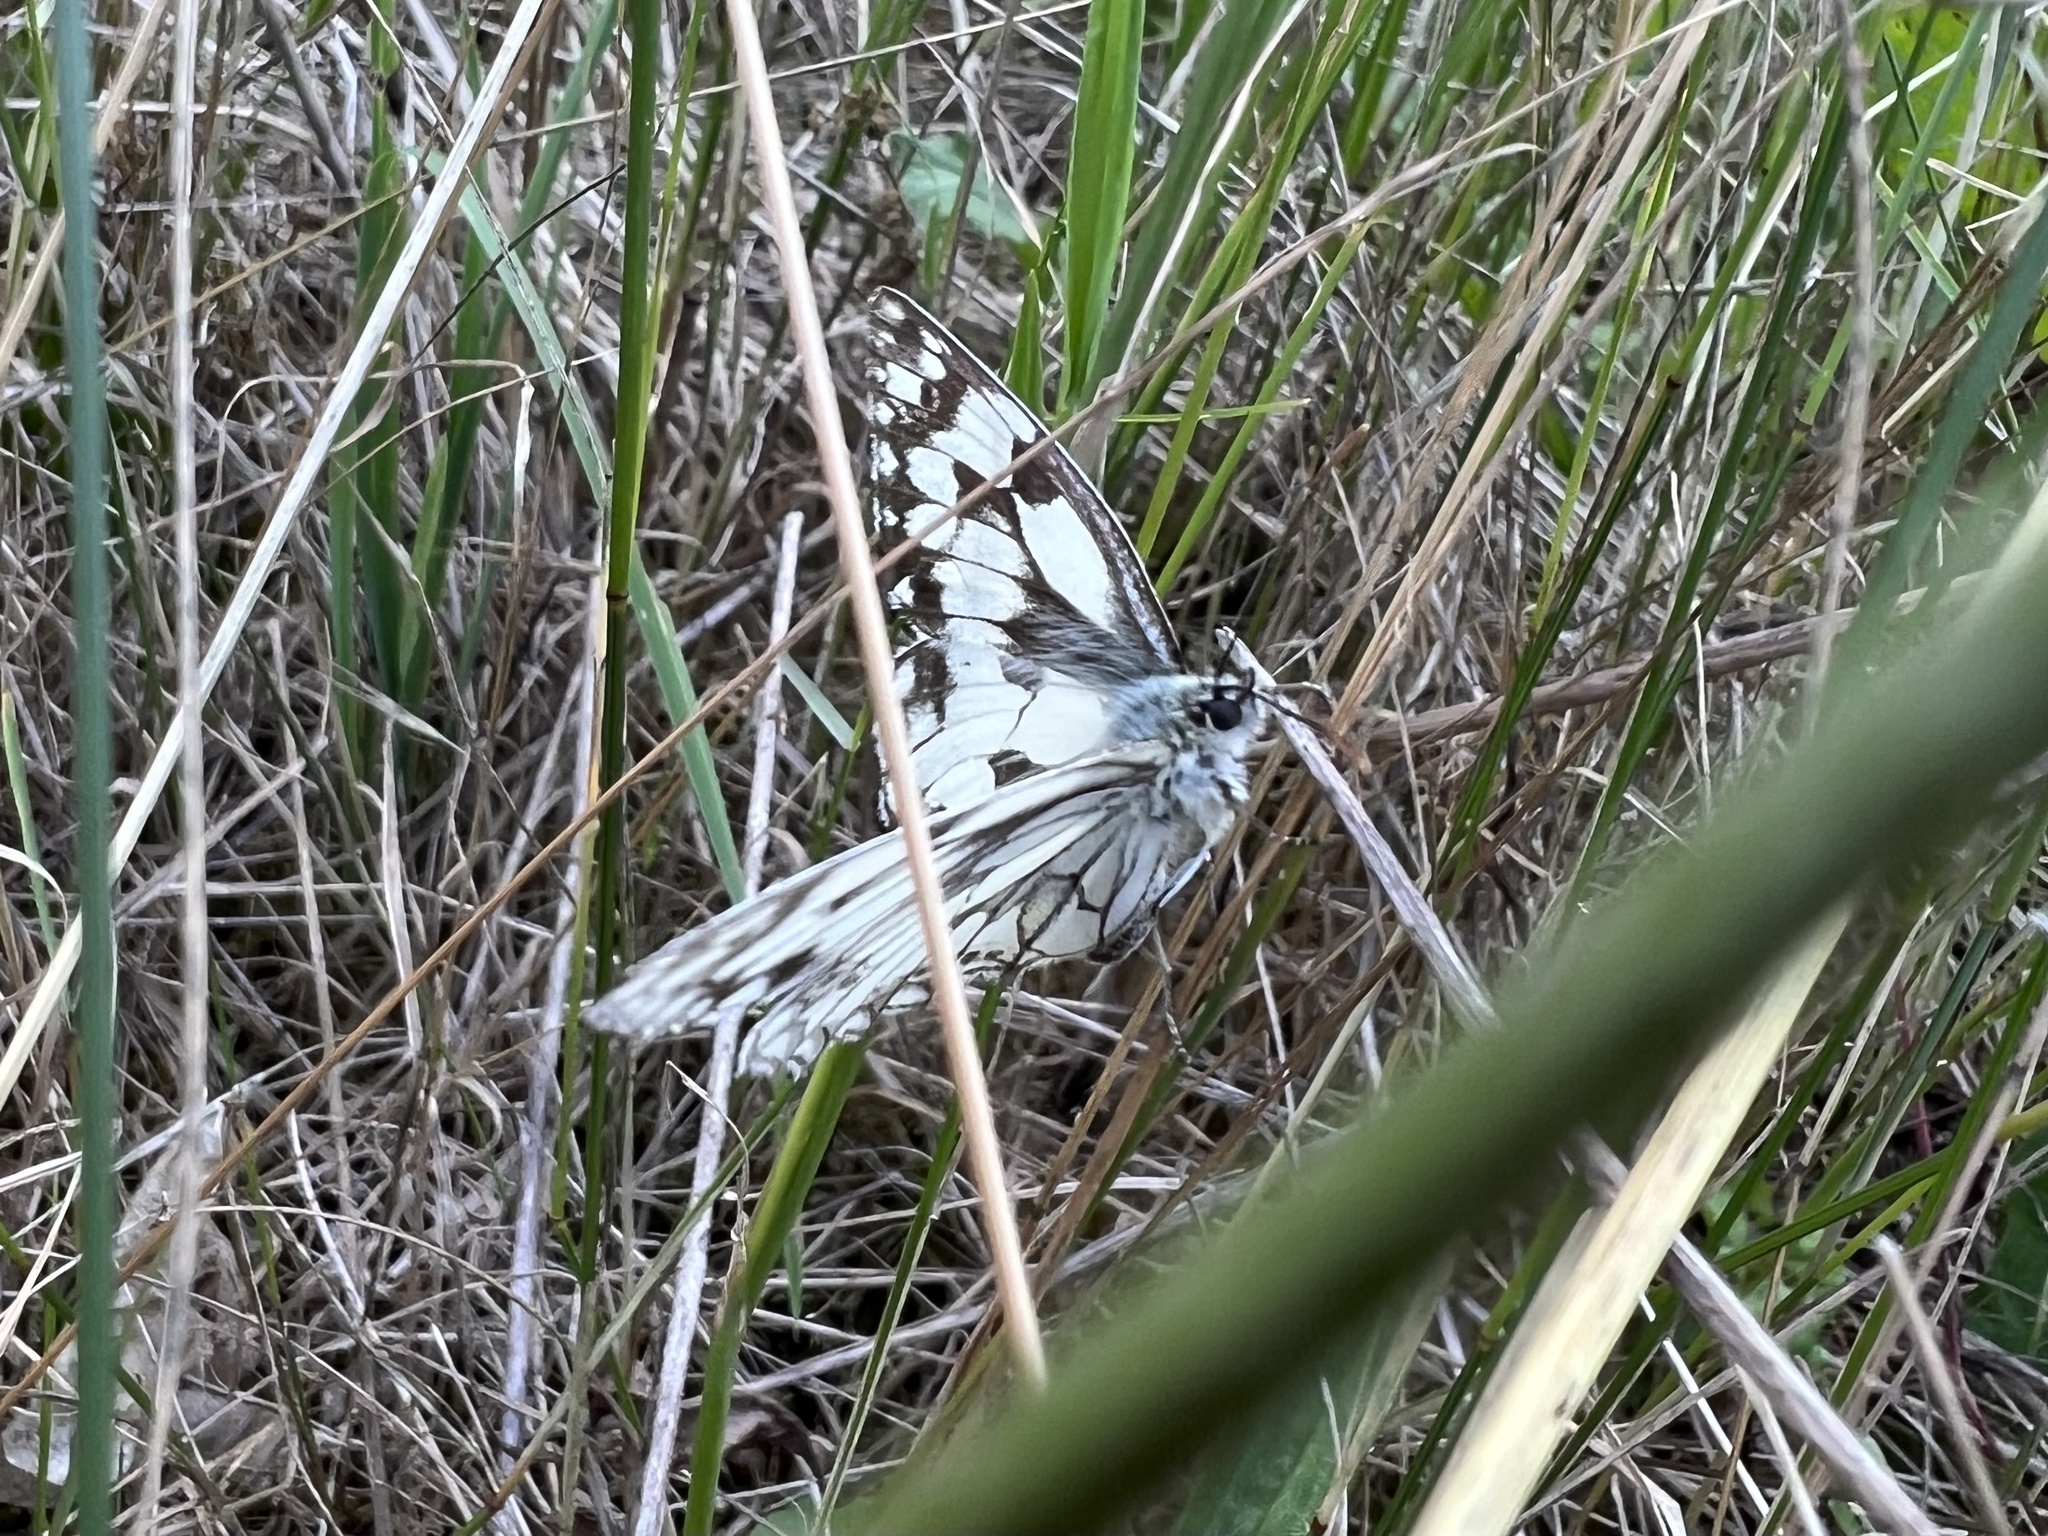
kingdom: Animalia
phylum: Arthropoda
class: Insecta
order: Lepidoptera
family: Nymphalidae
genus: Melanargia
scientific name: Melanargia galathea
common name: Marbled white
